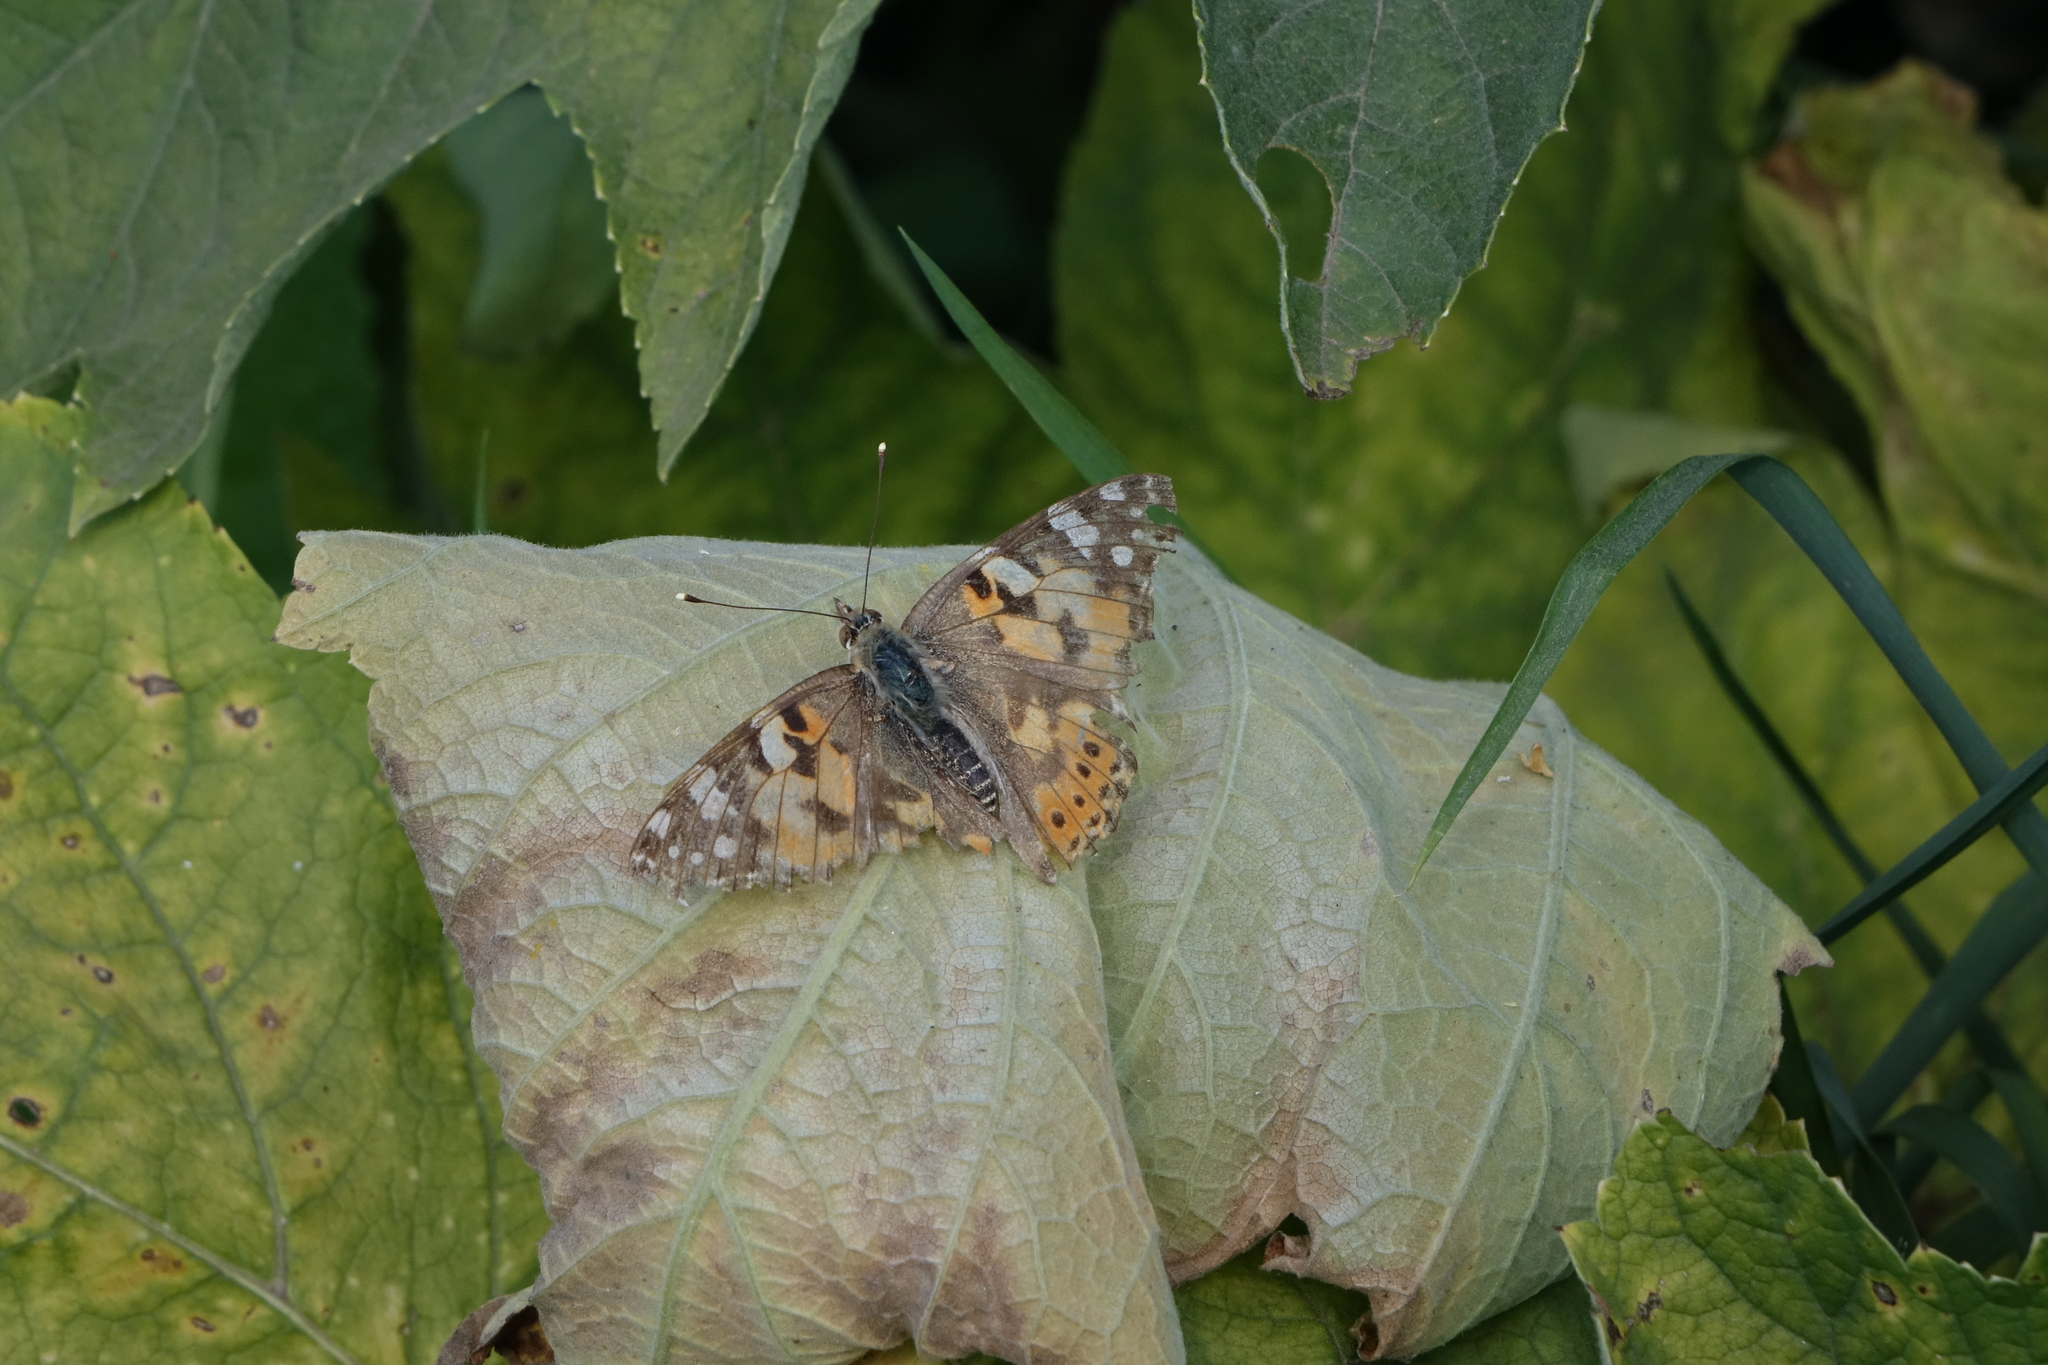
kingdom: Animalia
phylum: Arthropoda
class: Insecta
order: Lepidoptera
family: Nymphalidae
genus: Vanessa
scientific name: Vanessa cardui
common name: Painted lady
